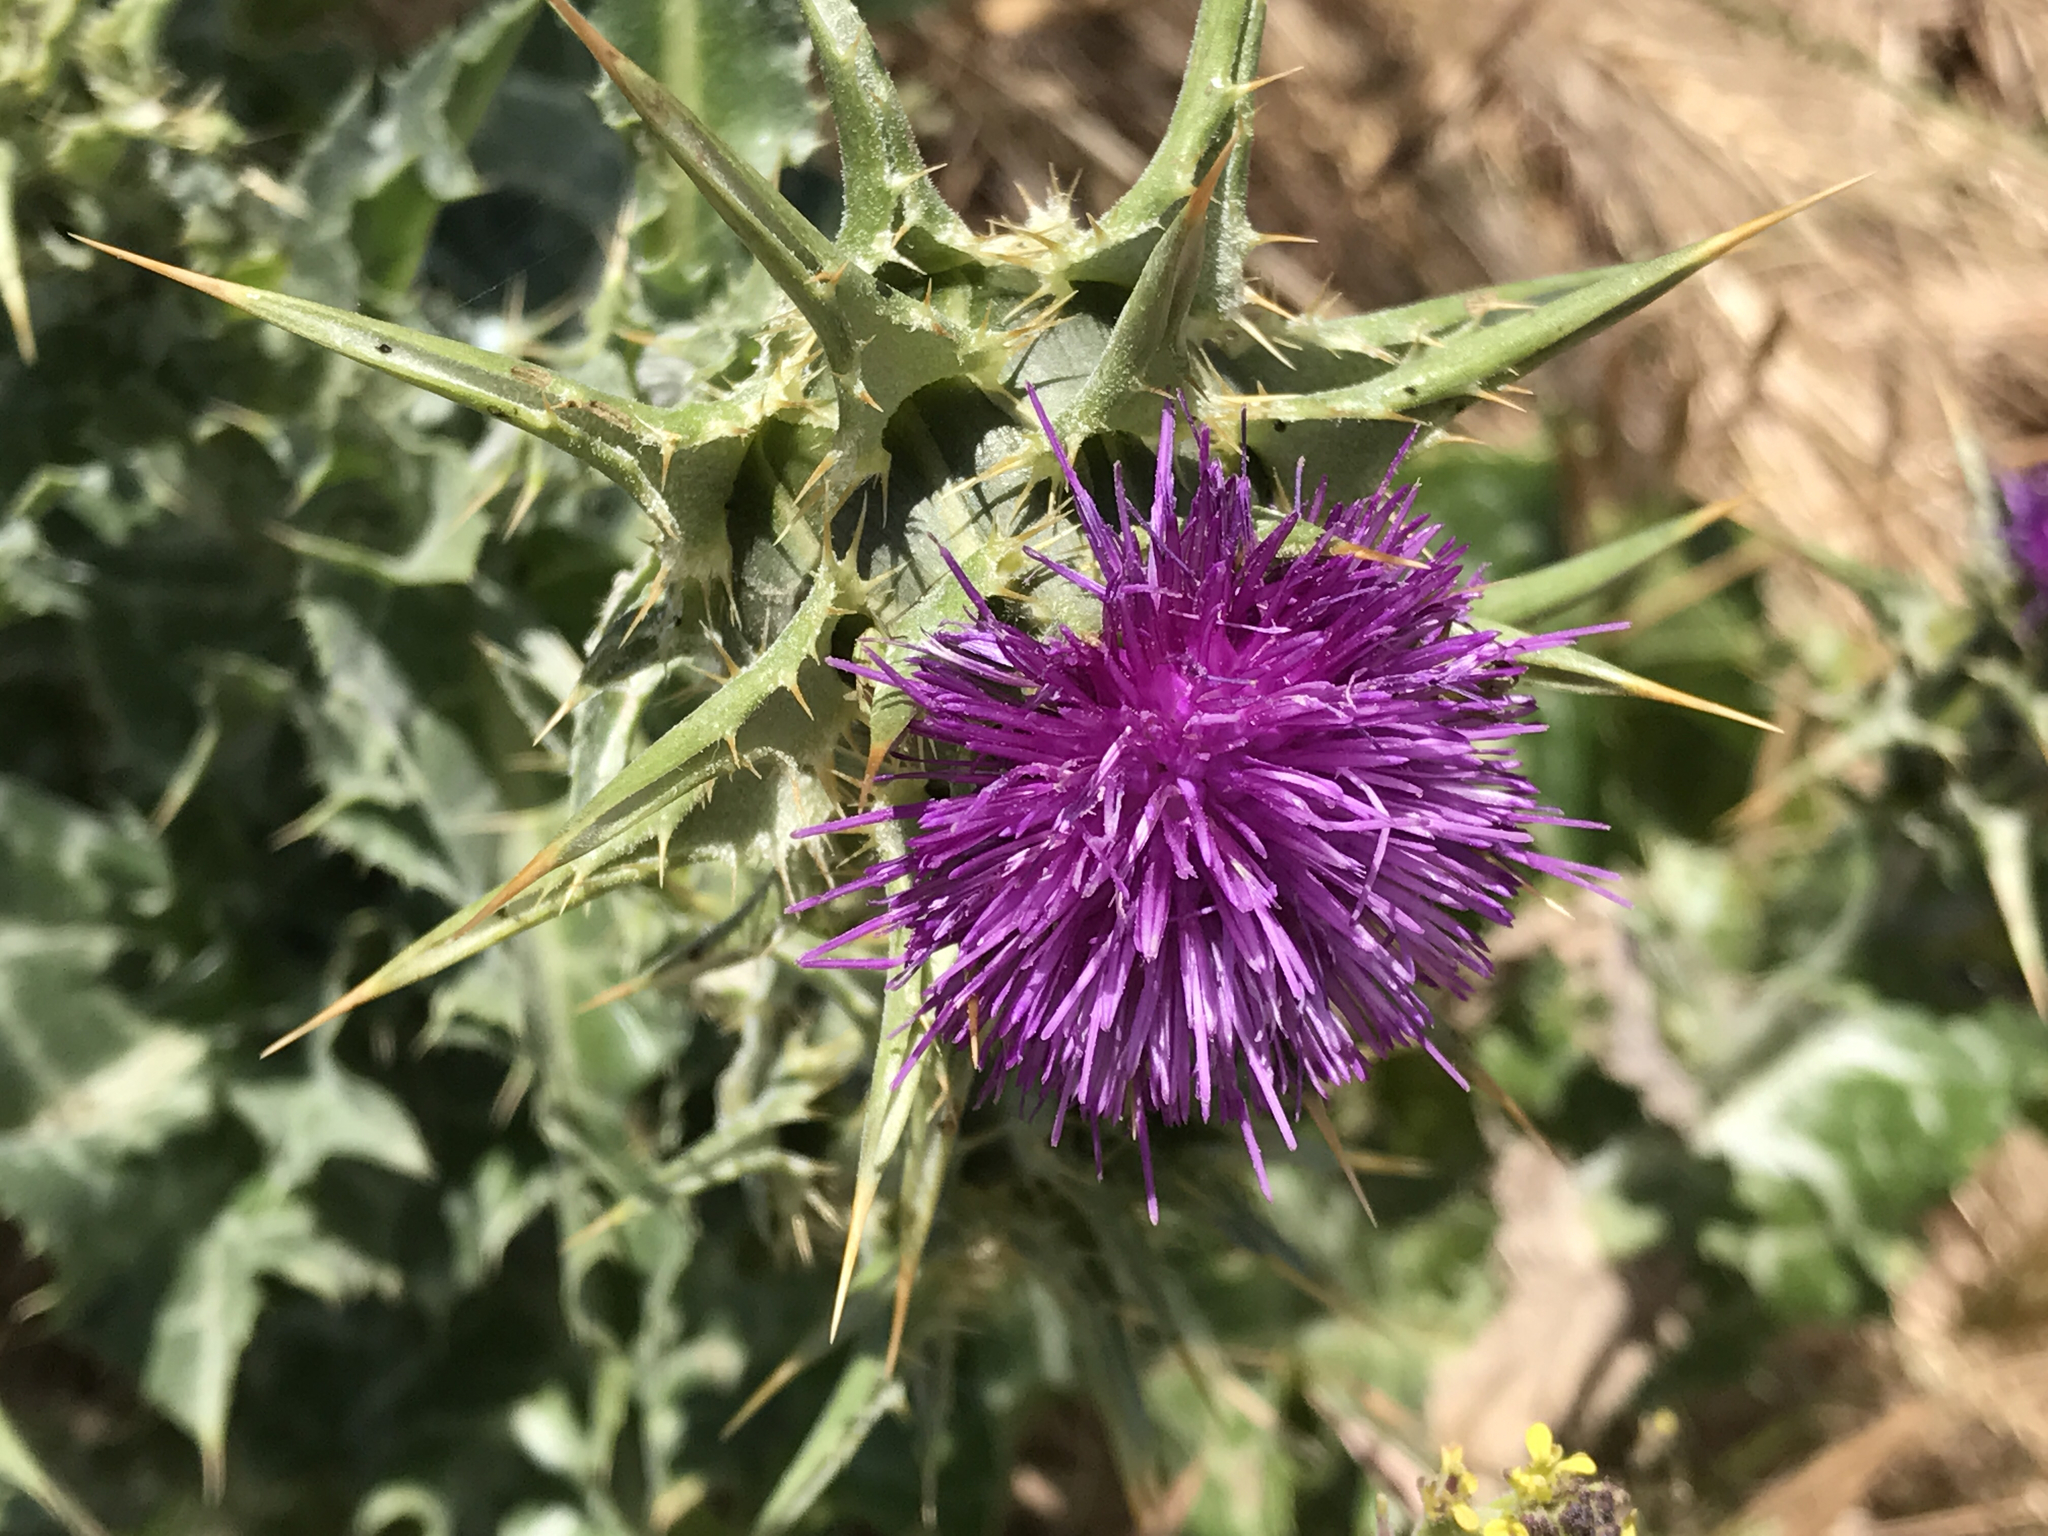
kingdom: Plantae
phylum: Tracheophyta
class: Magnoliopsida
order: Asterales
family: Asteraceae
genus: Silybum
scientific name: Silybum marianum
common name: Milk thistle
